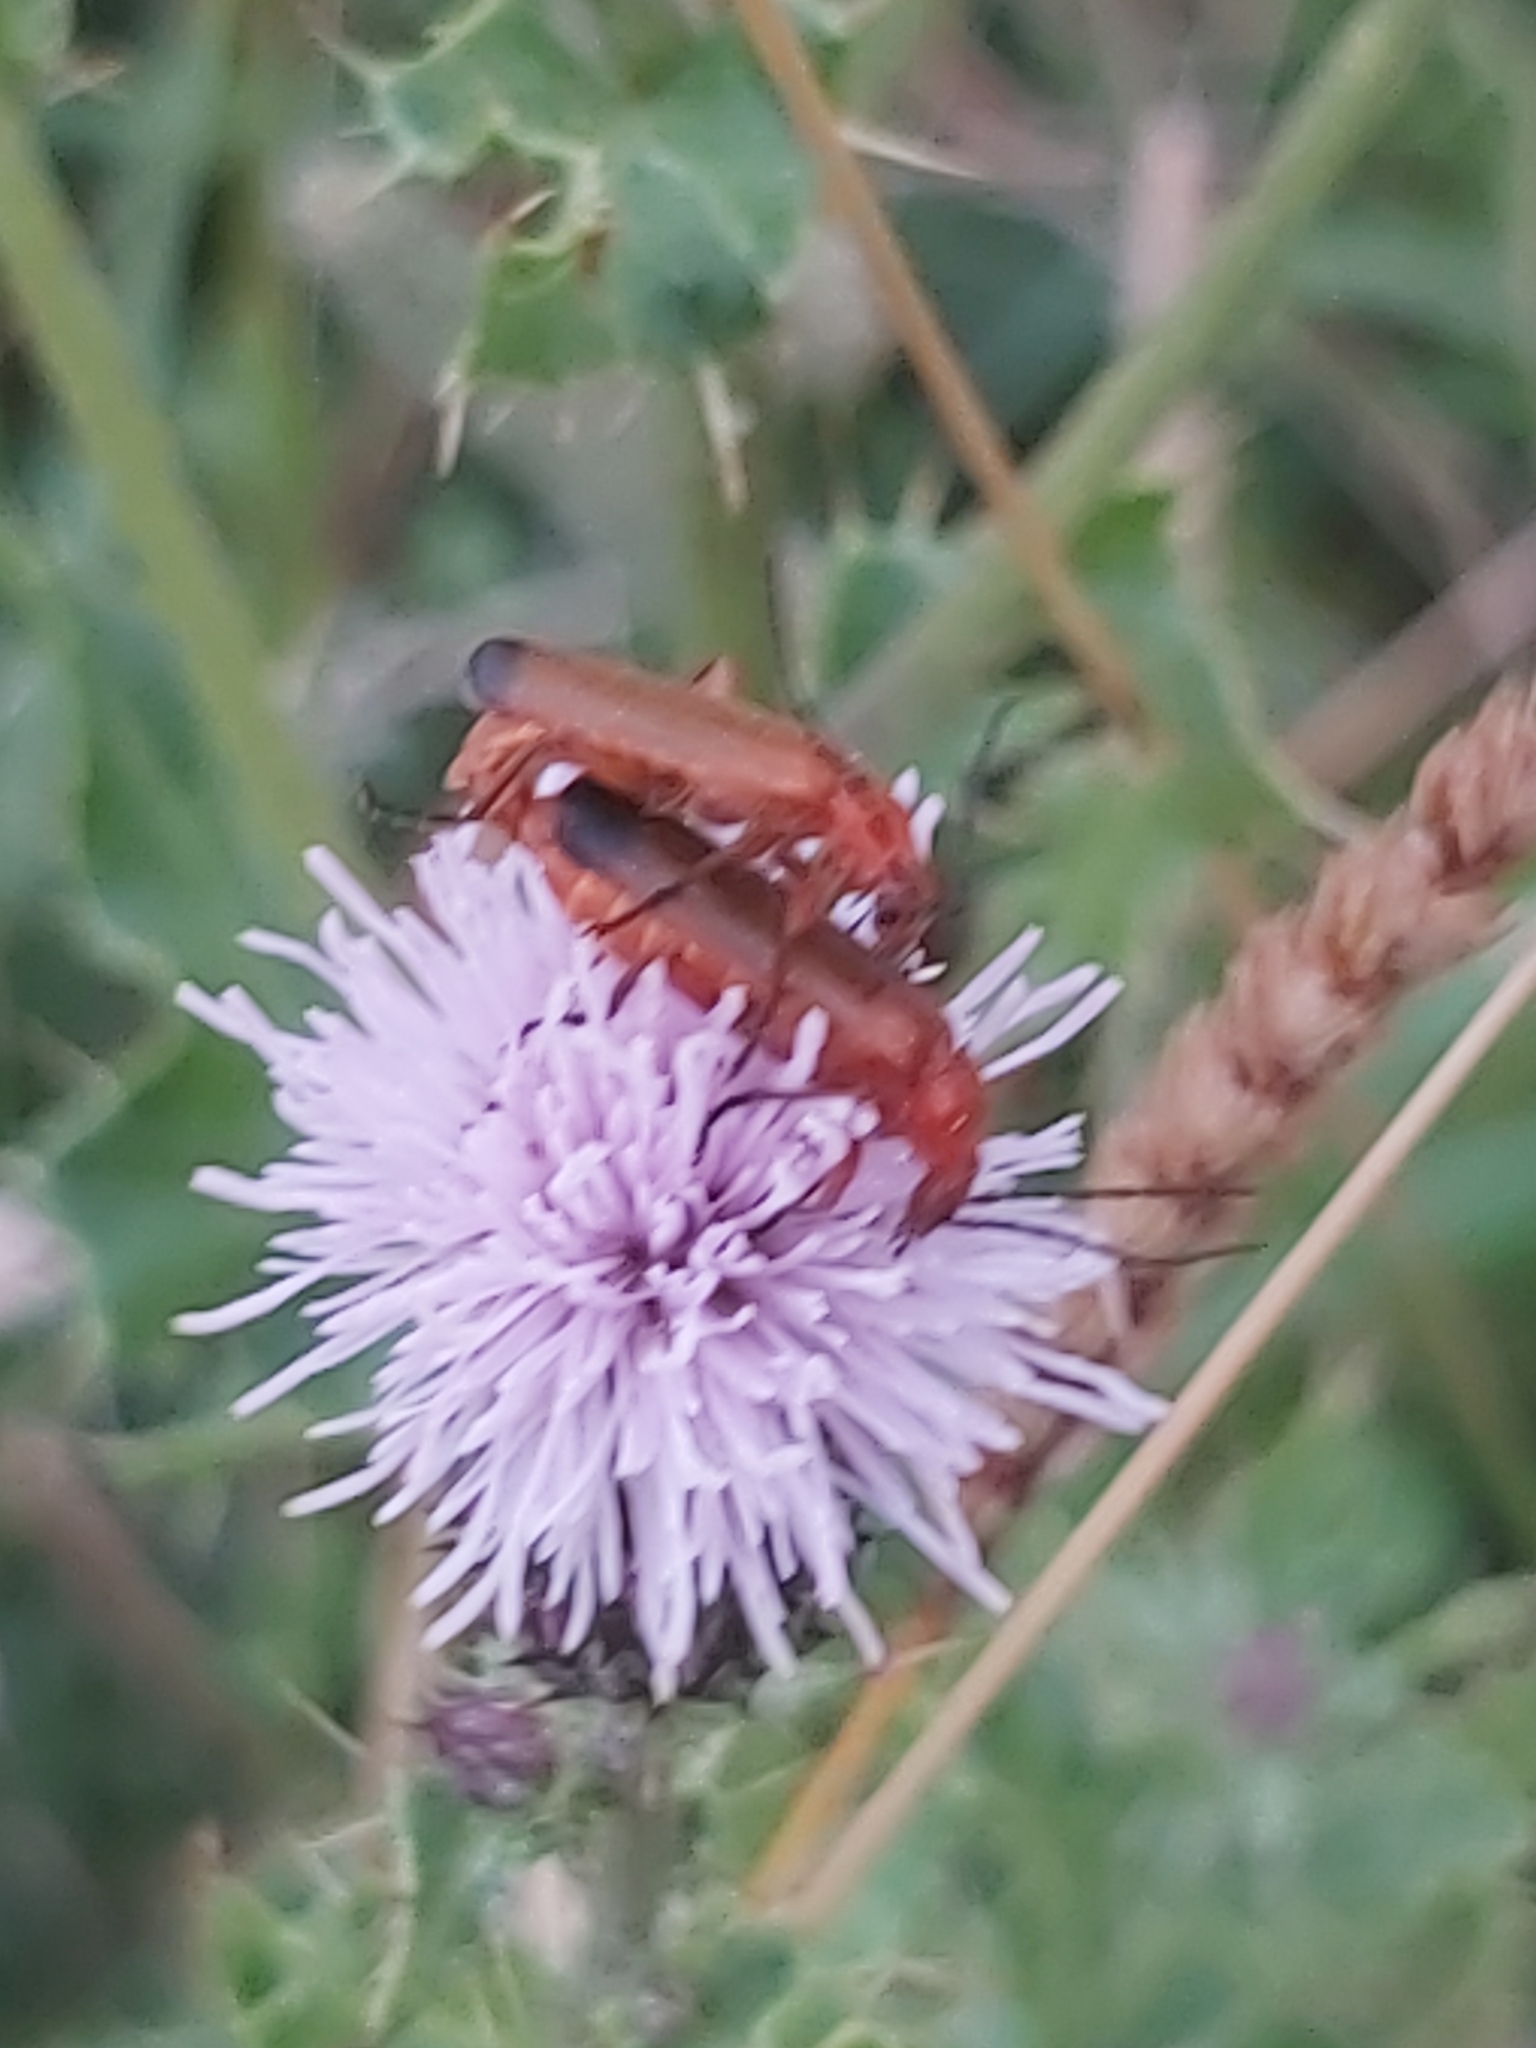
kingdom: Animalia
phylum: Arthropoda
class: Insecta
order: Coleoptera
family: Cantharidae
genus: Rhagonycha
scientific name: Rhagonycha fulva
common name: Common red soldier beetle
